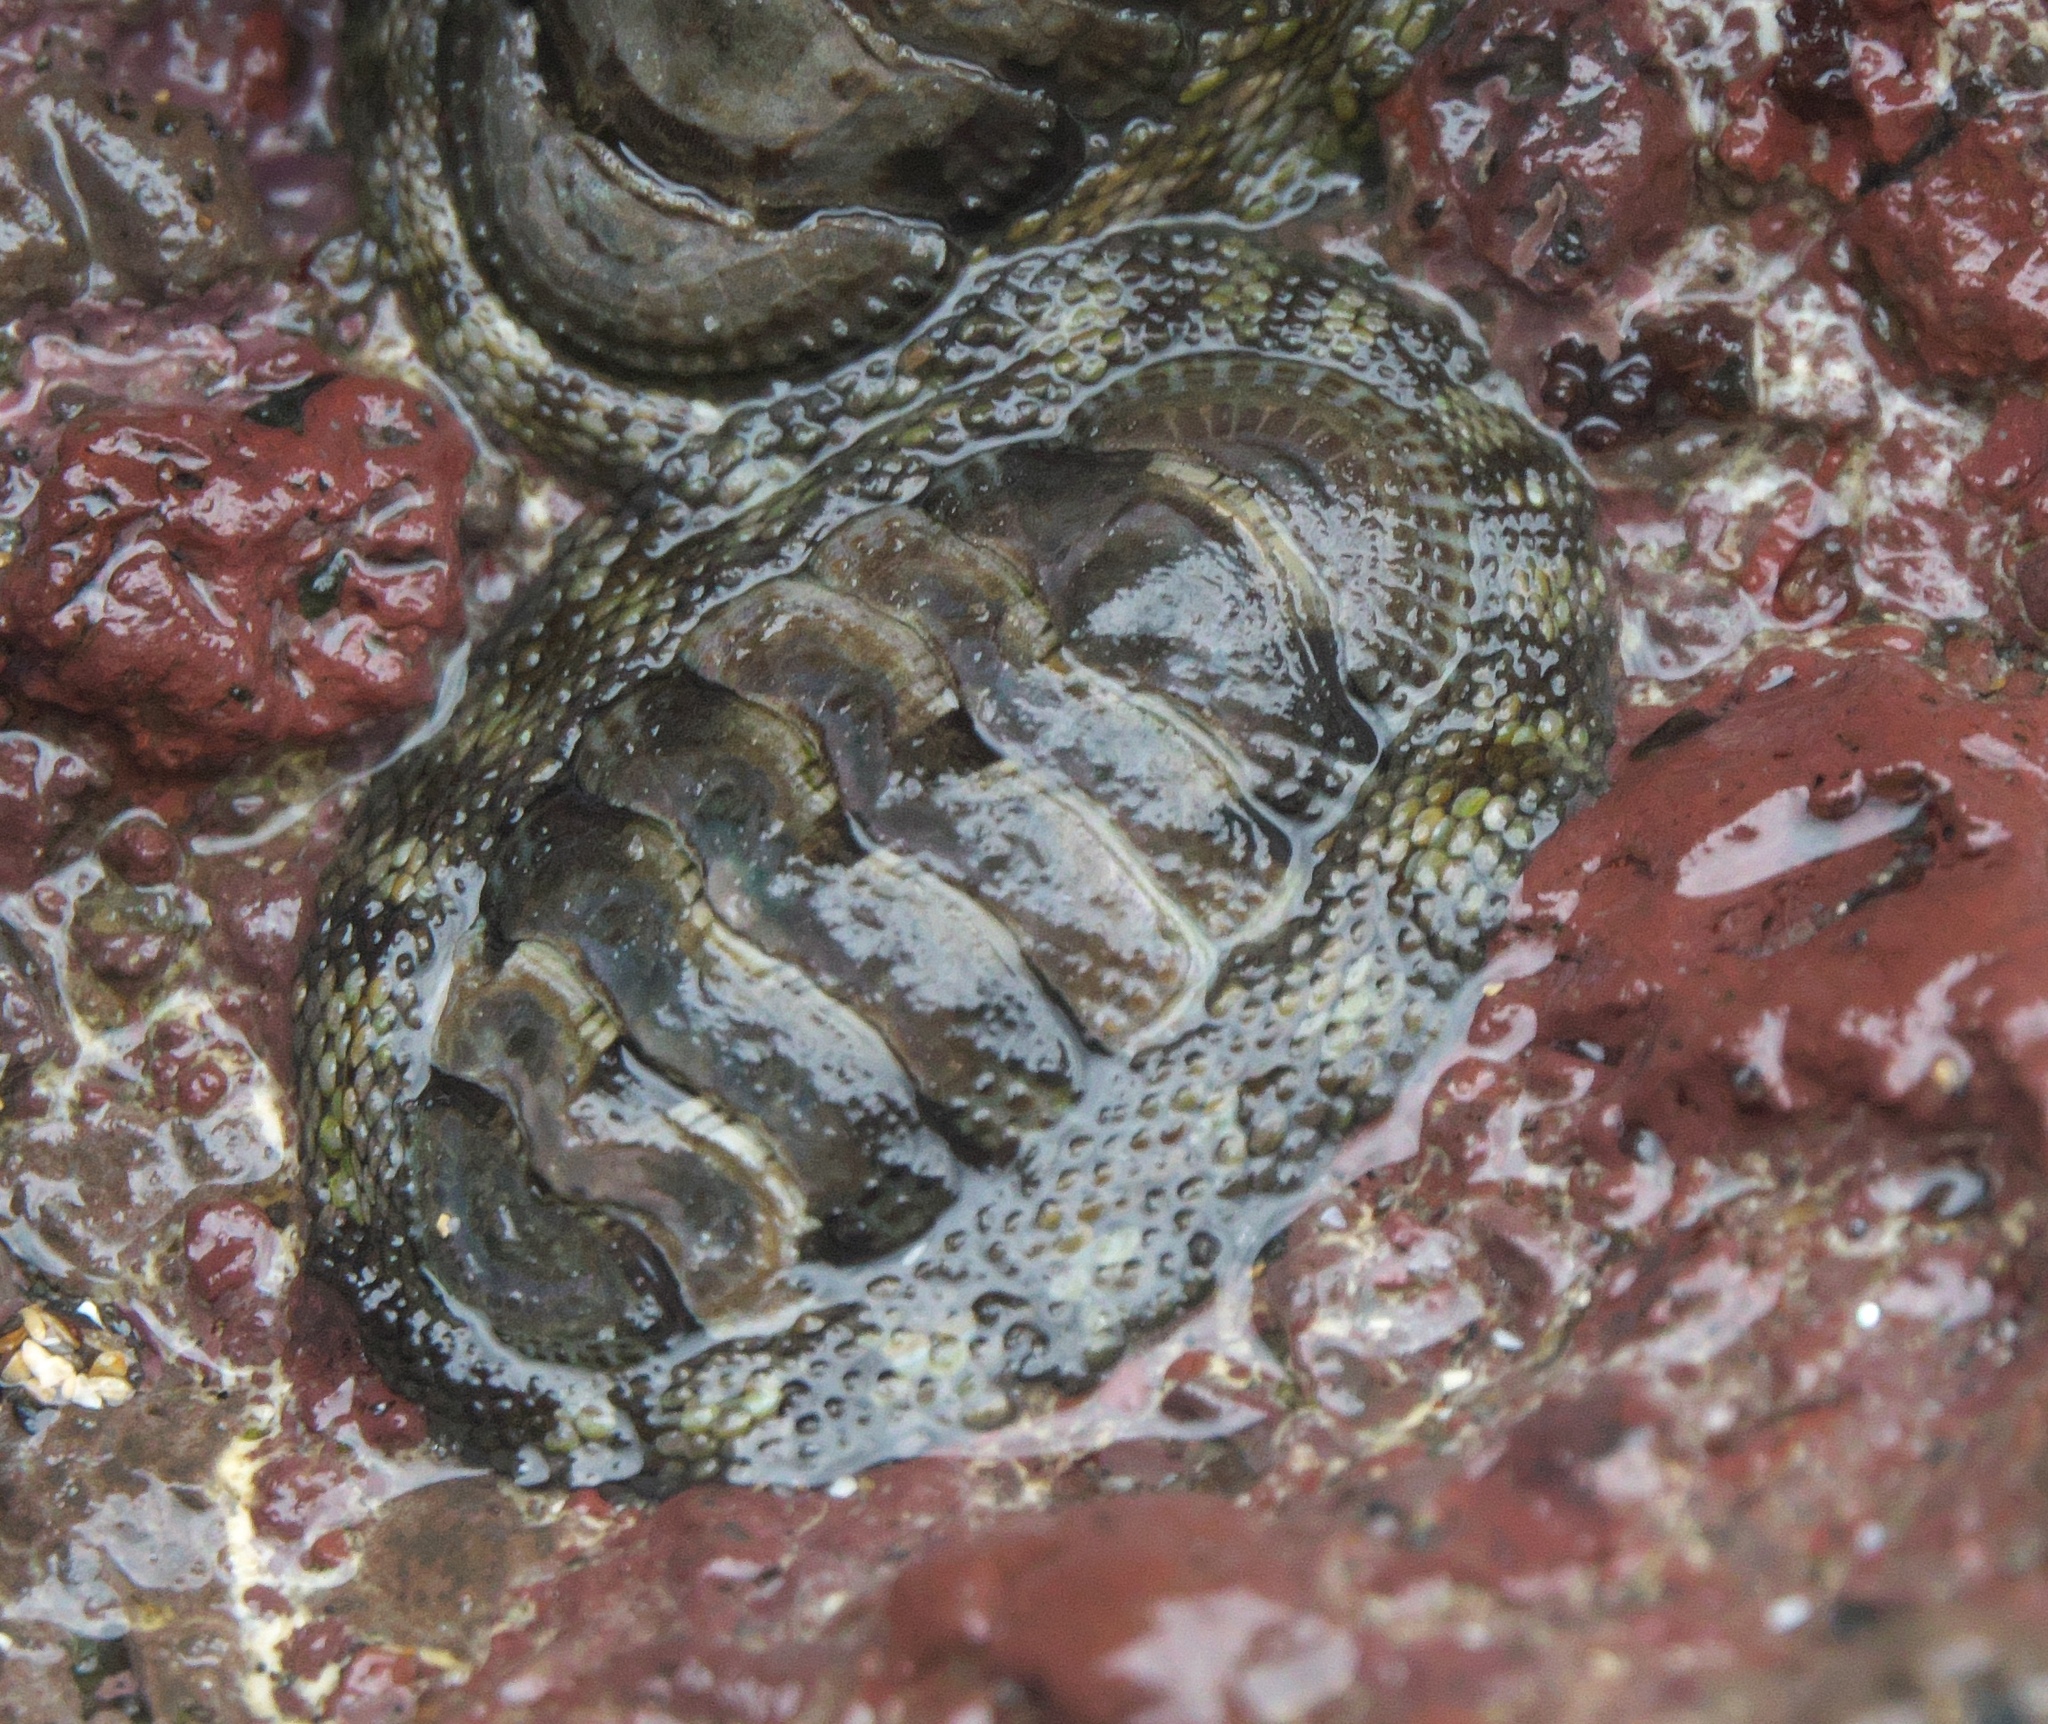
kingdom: Animalia
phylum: Mollusca
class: Polyplacophora
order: Chitonida
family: Chitonidae
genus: Sypharochiton
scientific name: Sypharochiton pelliserpentis
